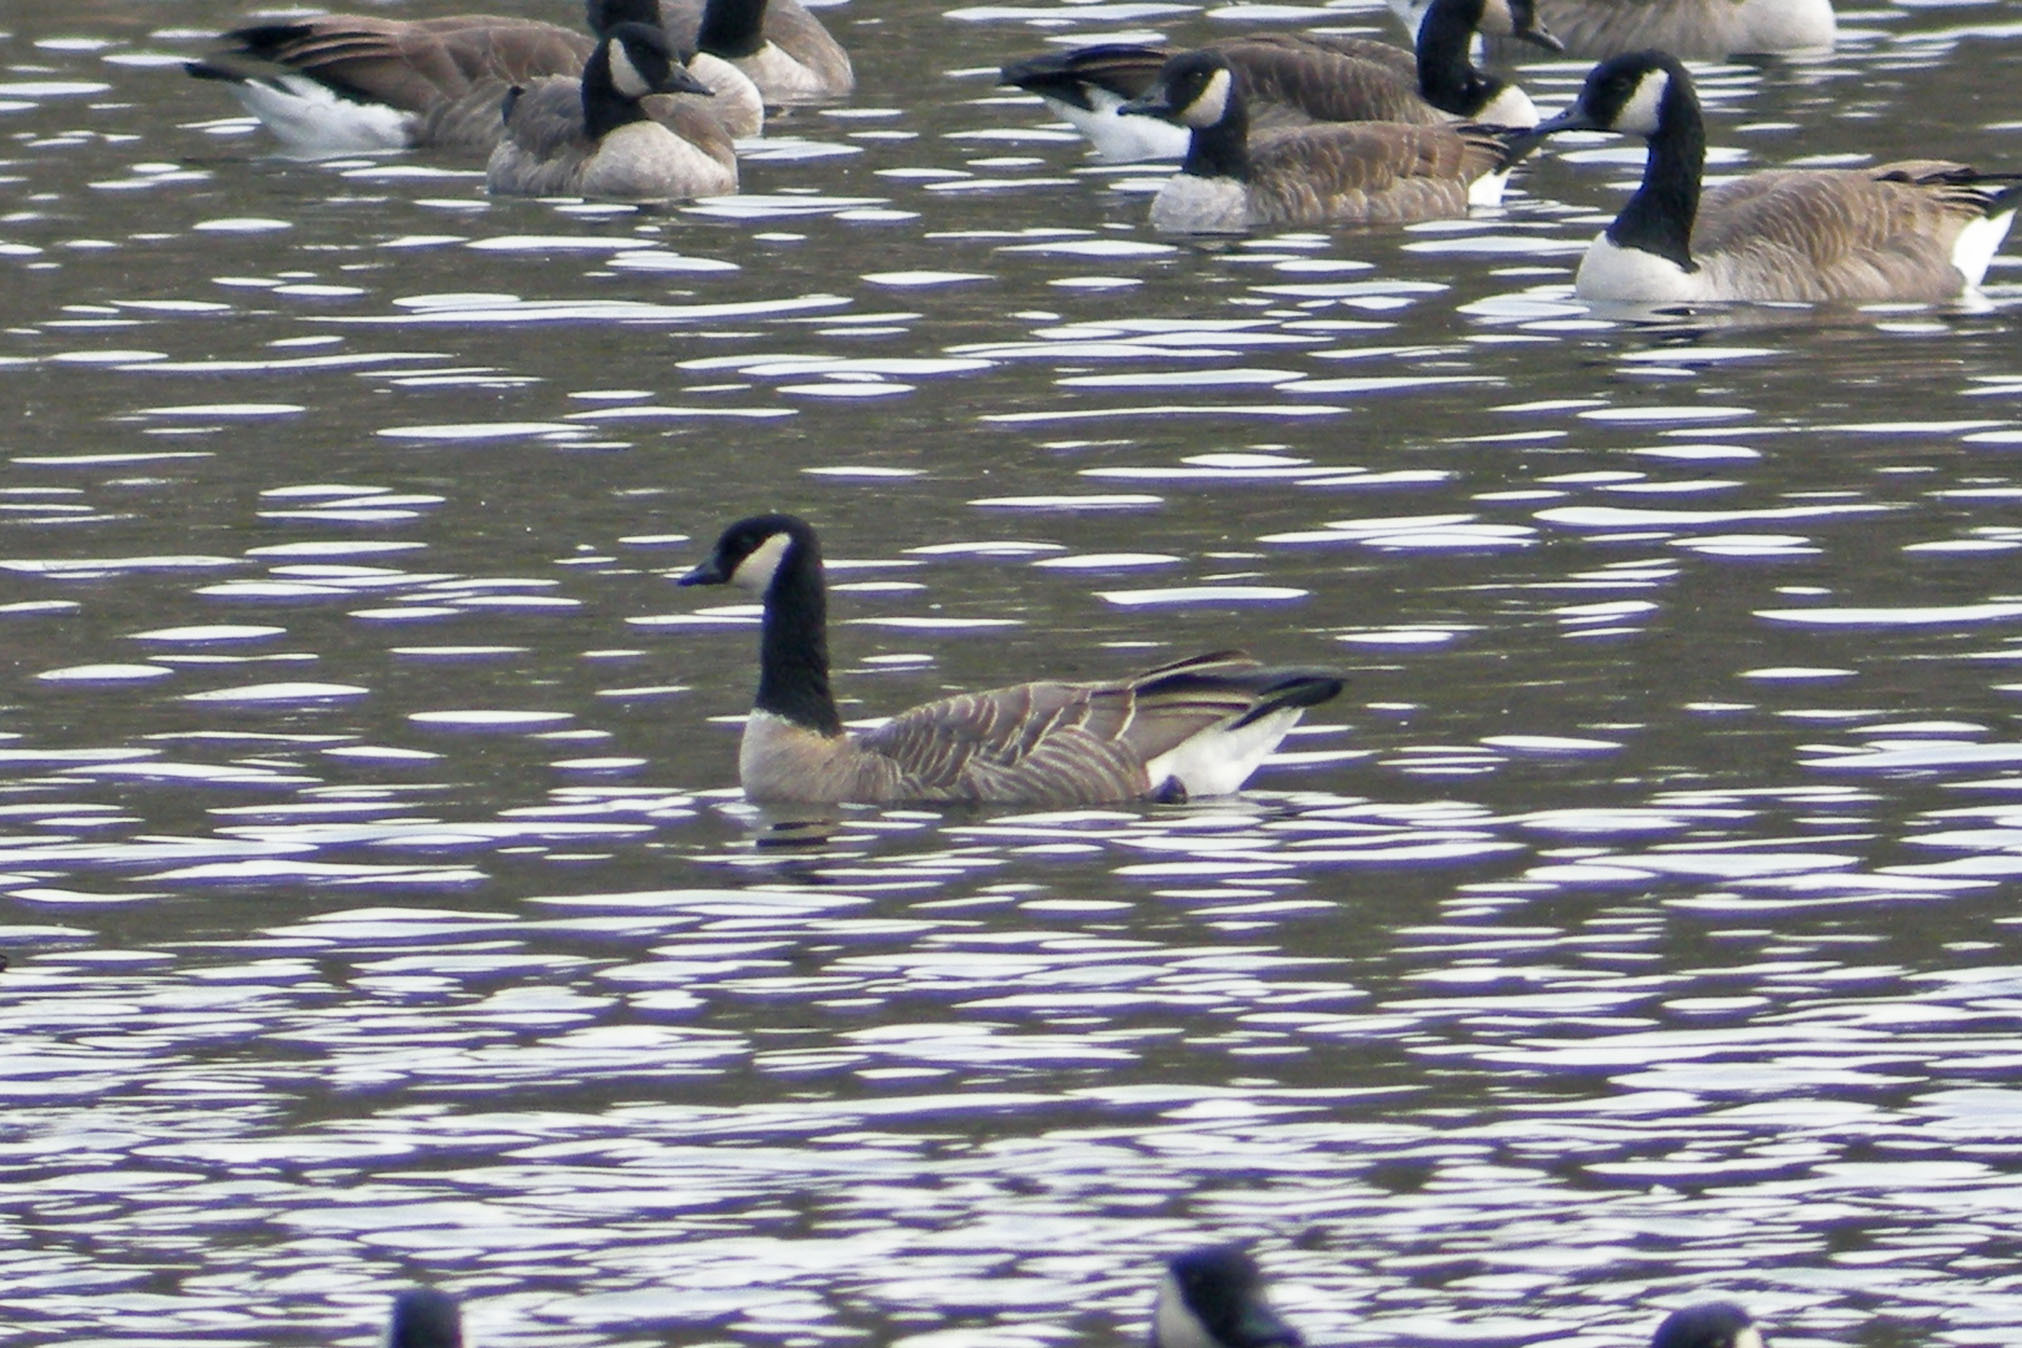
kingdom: Animalia
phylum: Chordata
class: Aves
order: Anseriformes
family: Anatidae
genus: Branta
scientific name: Branta hutchinsii
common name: Cackling goose
